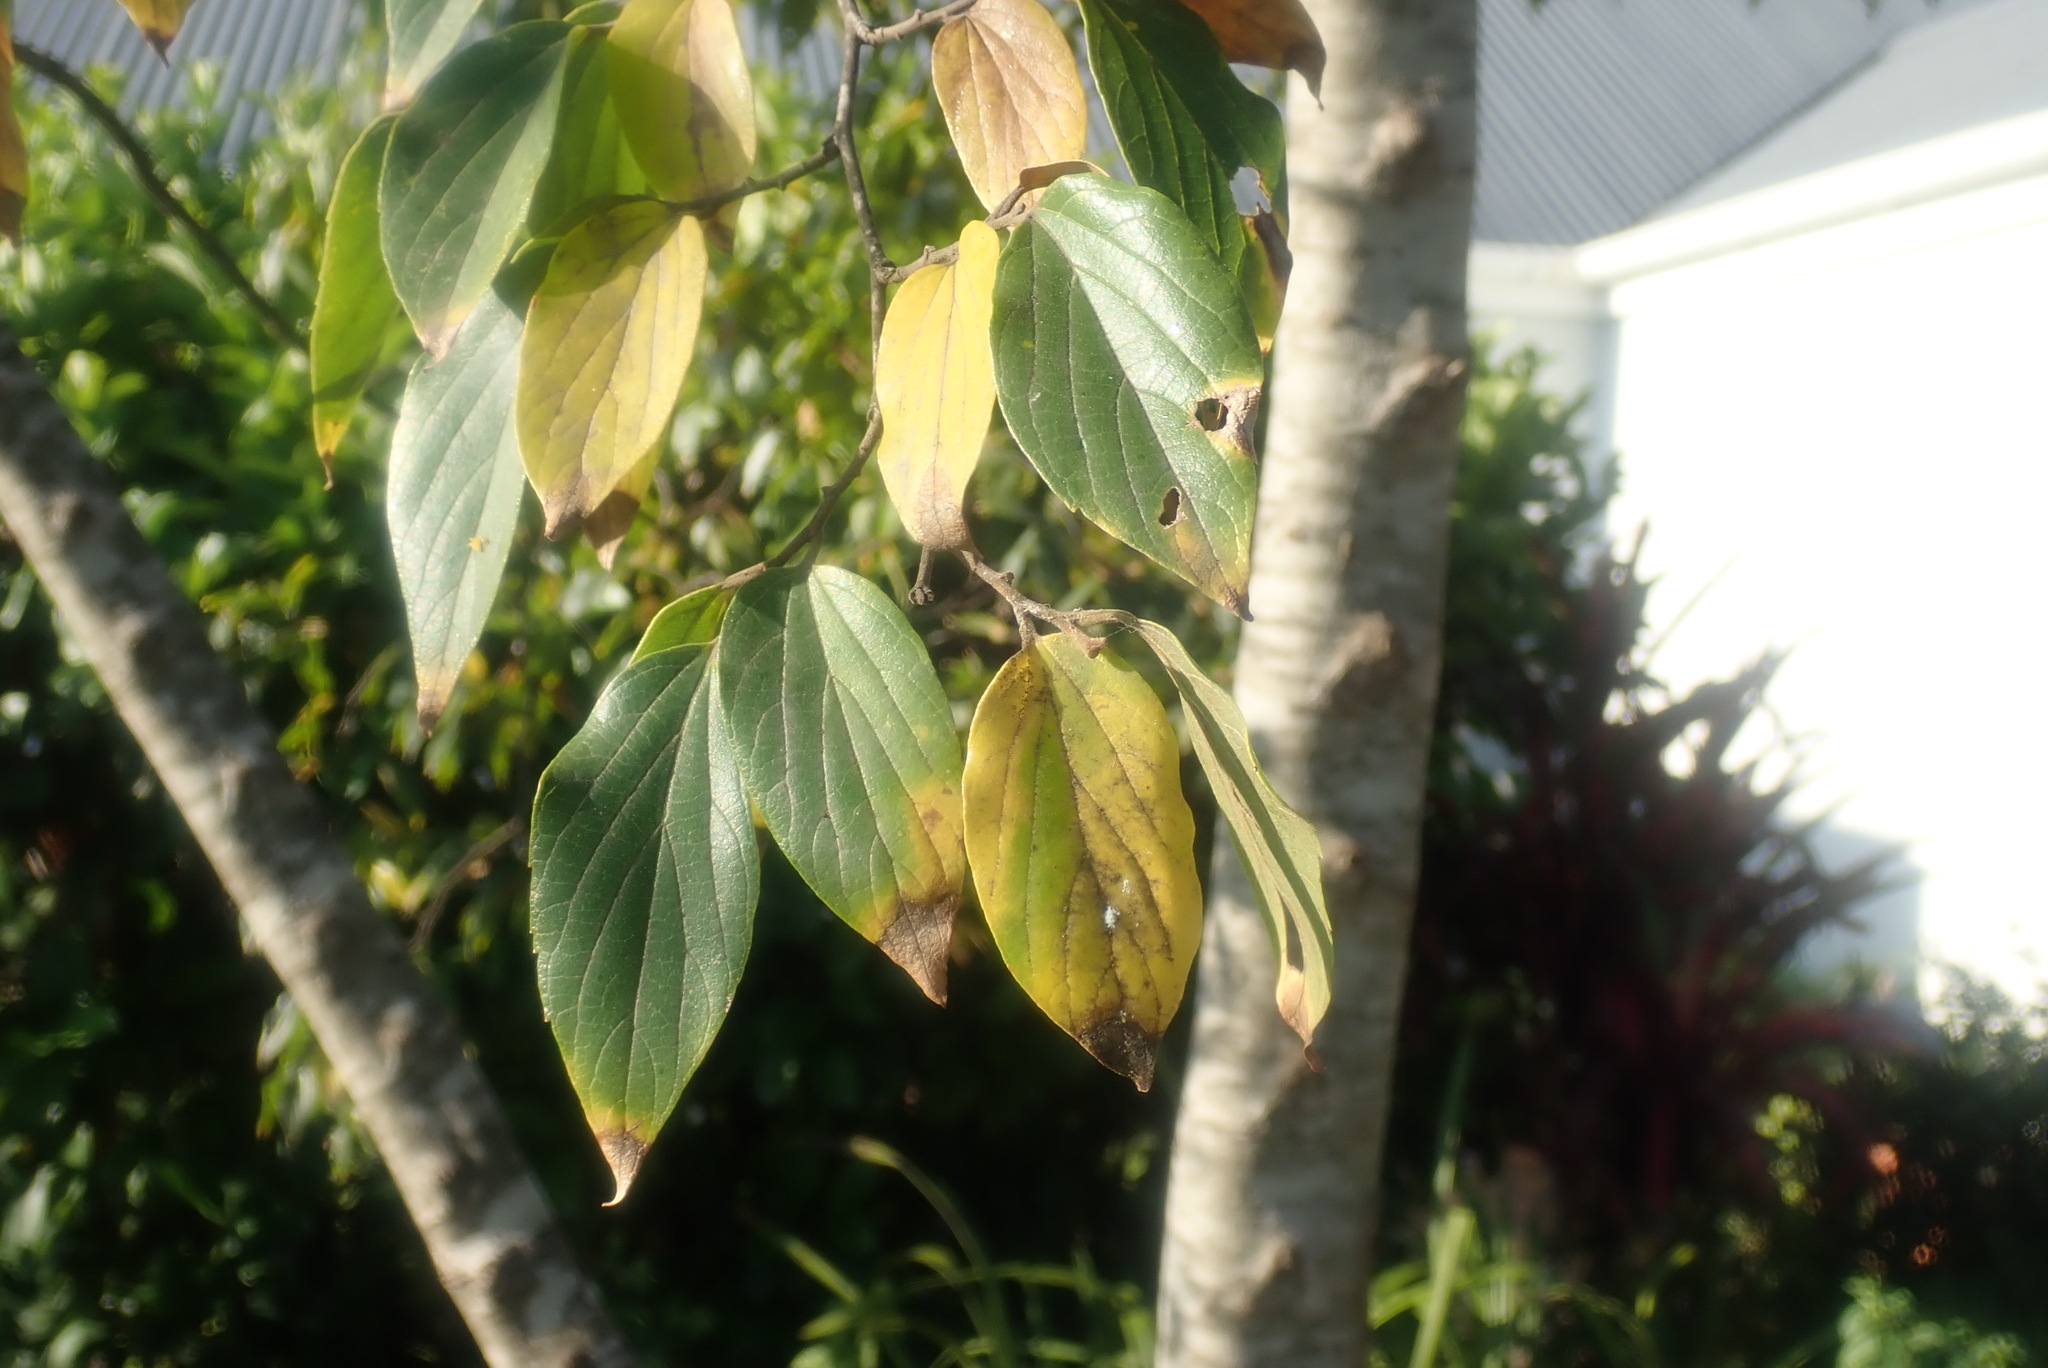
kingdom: Plantae
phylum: Tracheophyta
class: Magnoliopsida
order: Rosales
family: Cannabaceae
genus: Celtis
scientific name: Celtis africana
